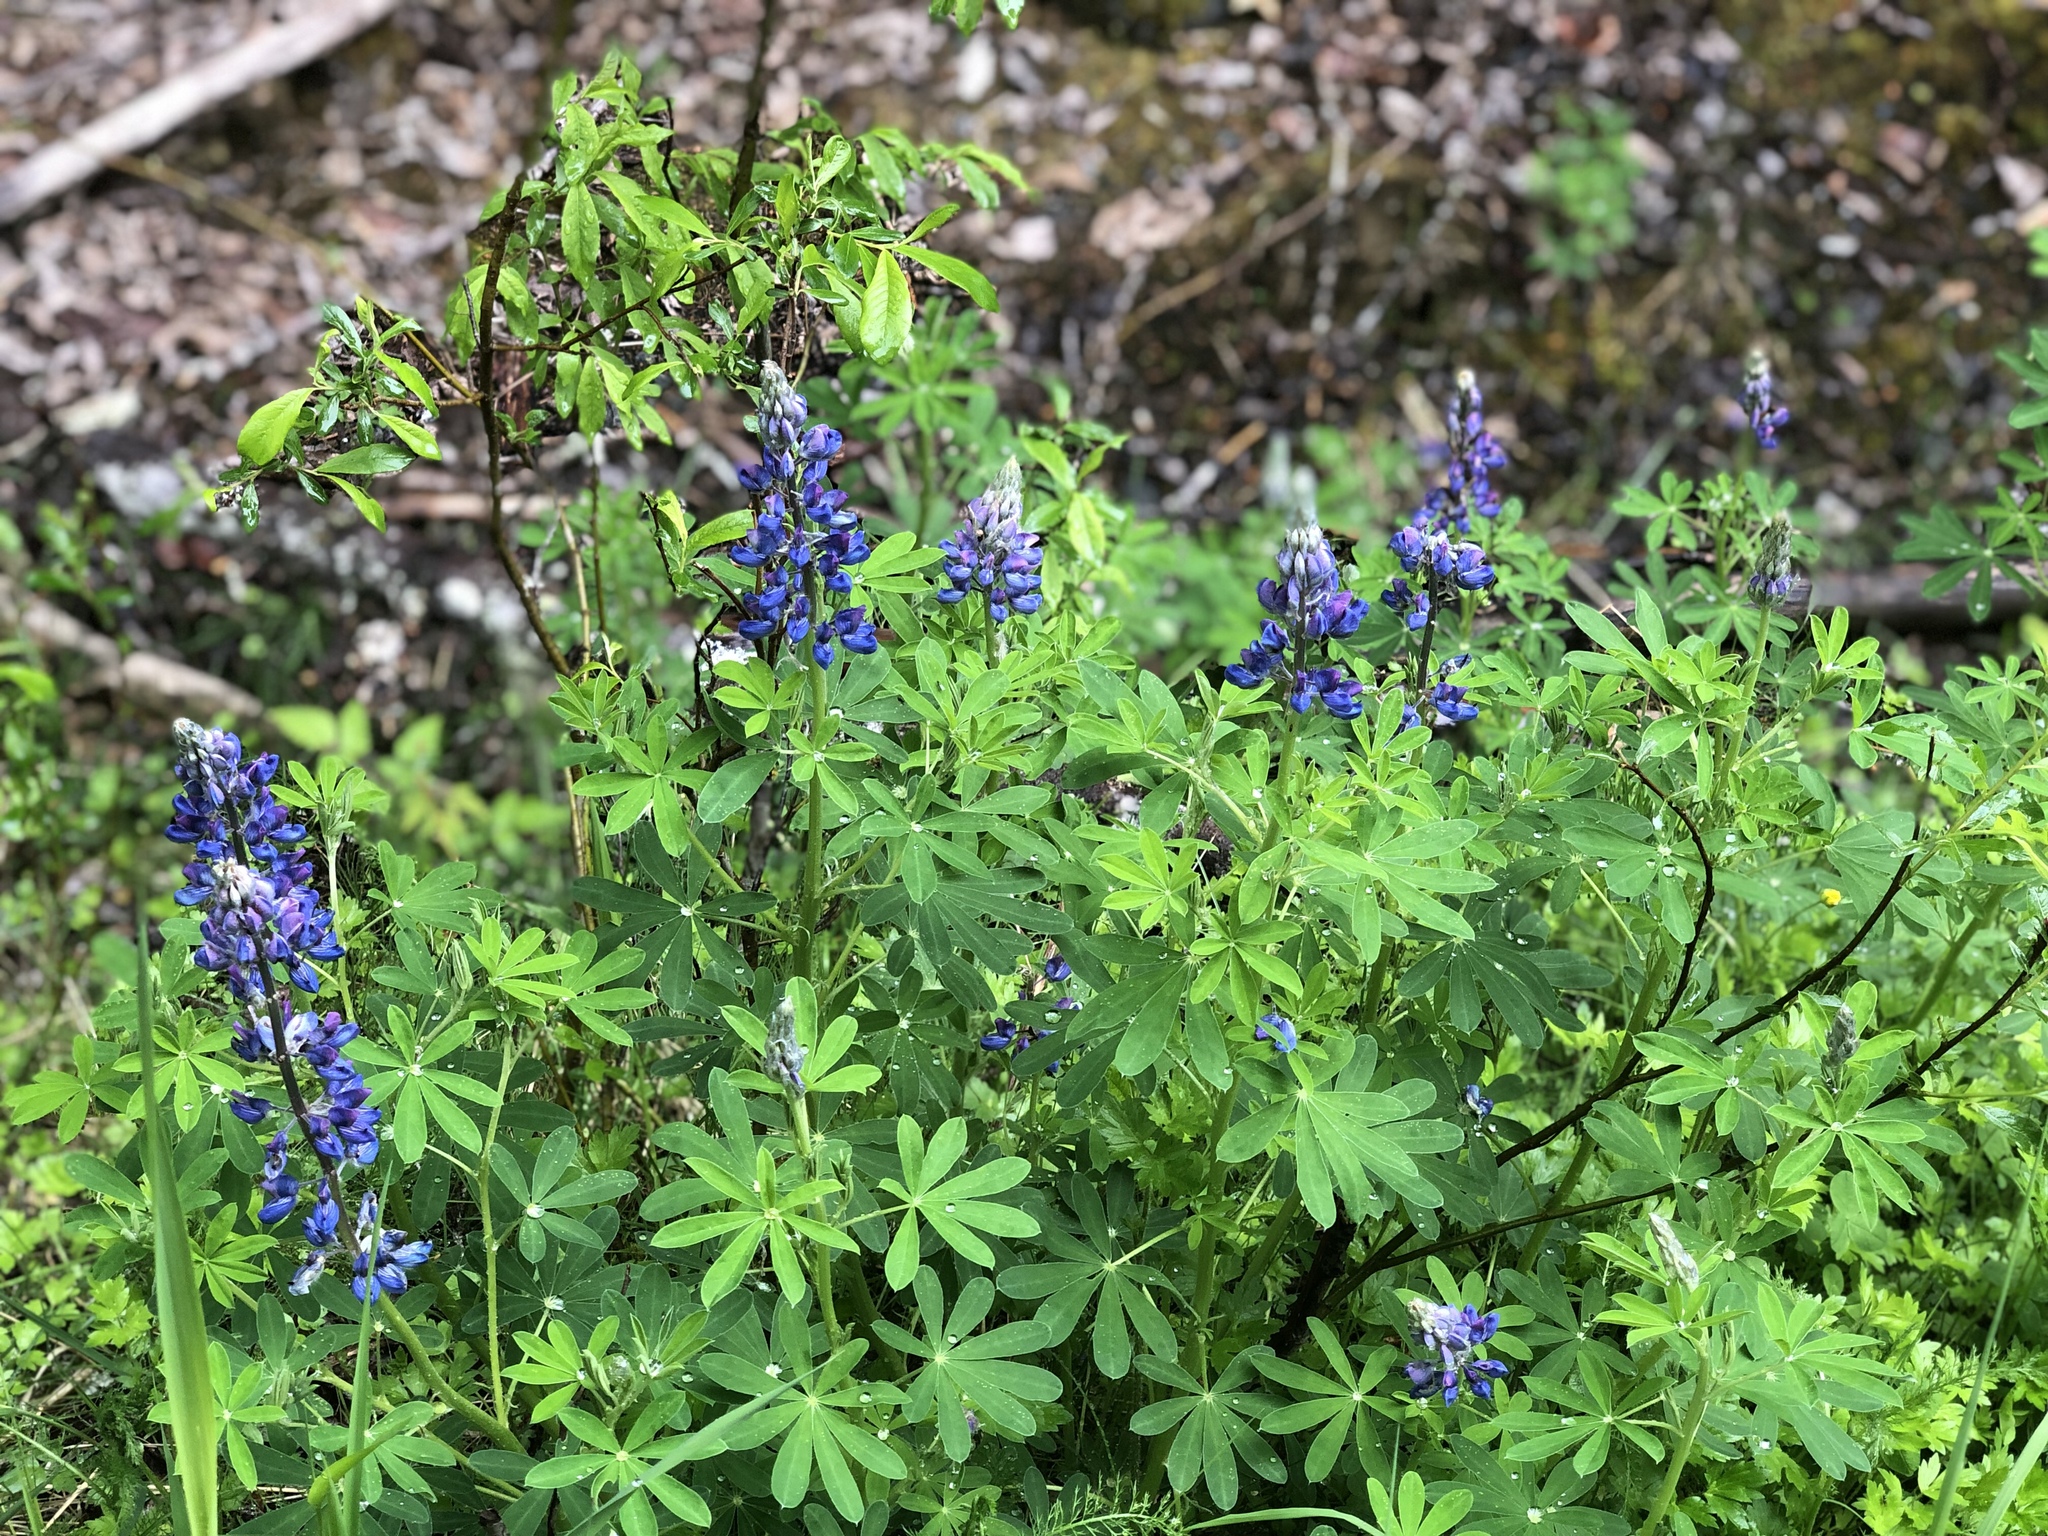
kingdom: Plantae
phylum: Tracheophyta
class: Magnoliopsida
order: Fabales
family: Fabaceae
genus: Lupinus
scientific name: Lupinus nootkatensis
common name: Nootka lupine
